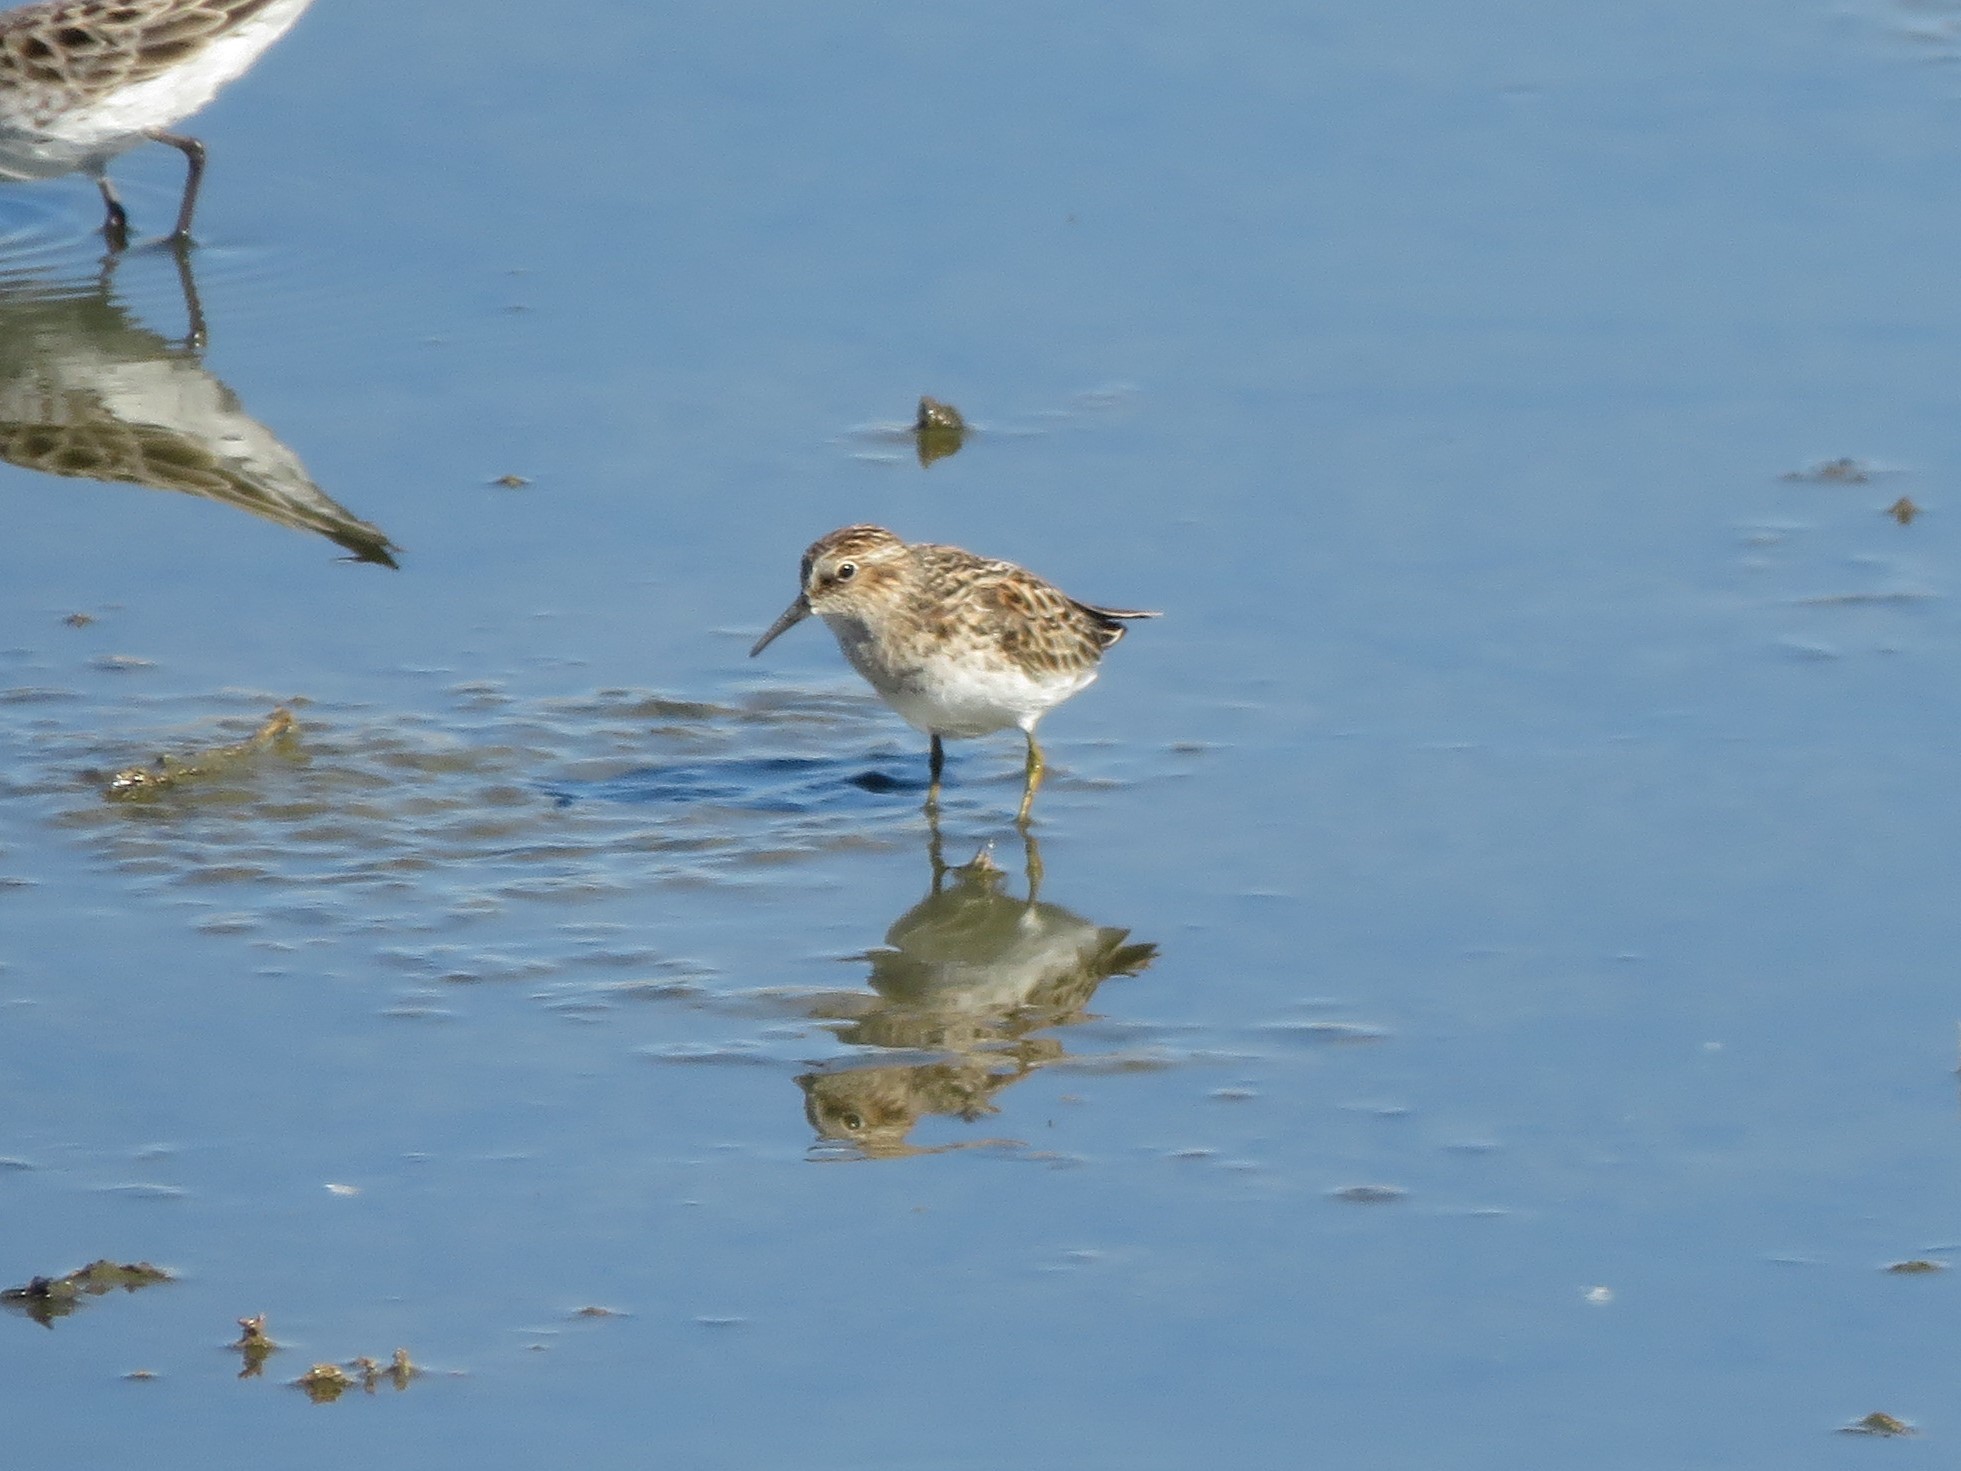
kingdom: Animalia
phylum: Chordata
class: Aves
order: Charadriiformes
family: Scolopacidae
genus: Calidris
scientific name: Calidris minutilla
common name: Least sandpiper
